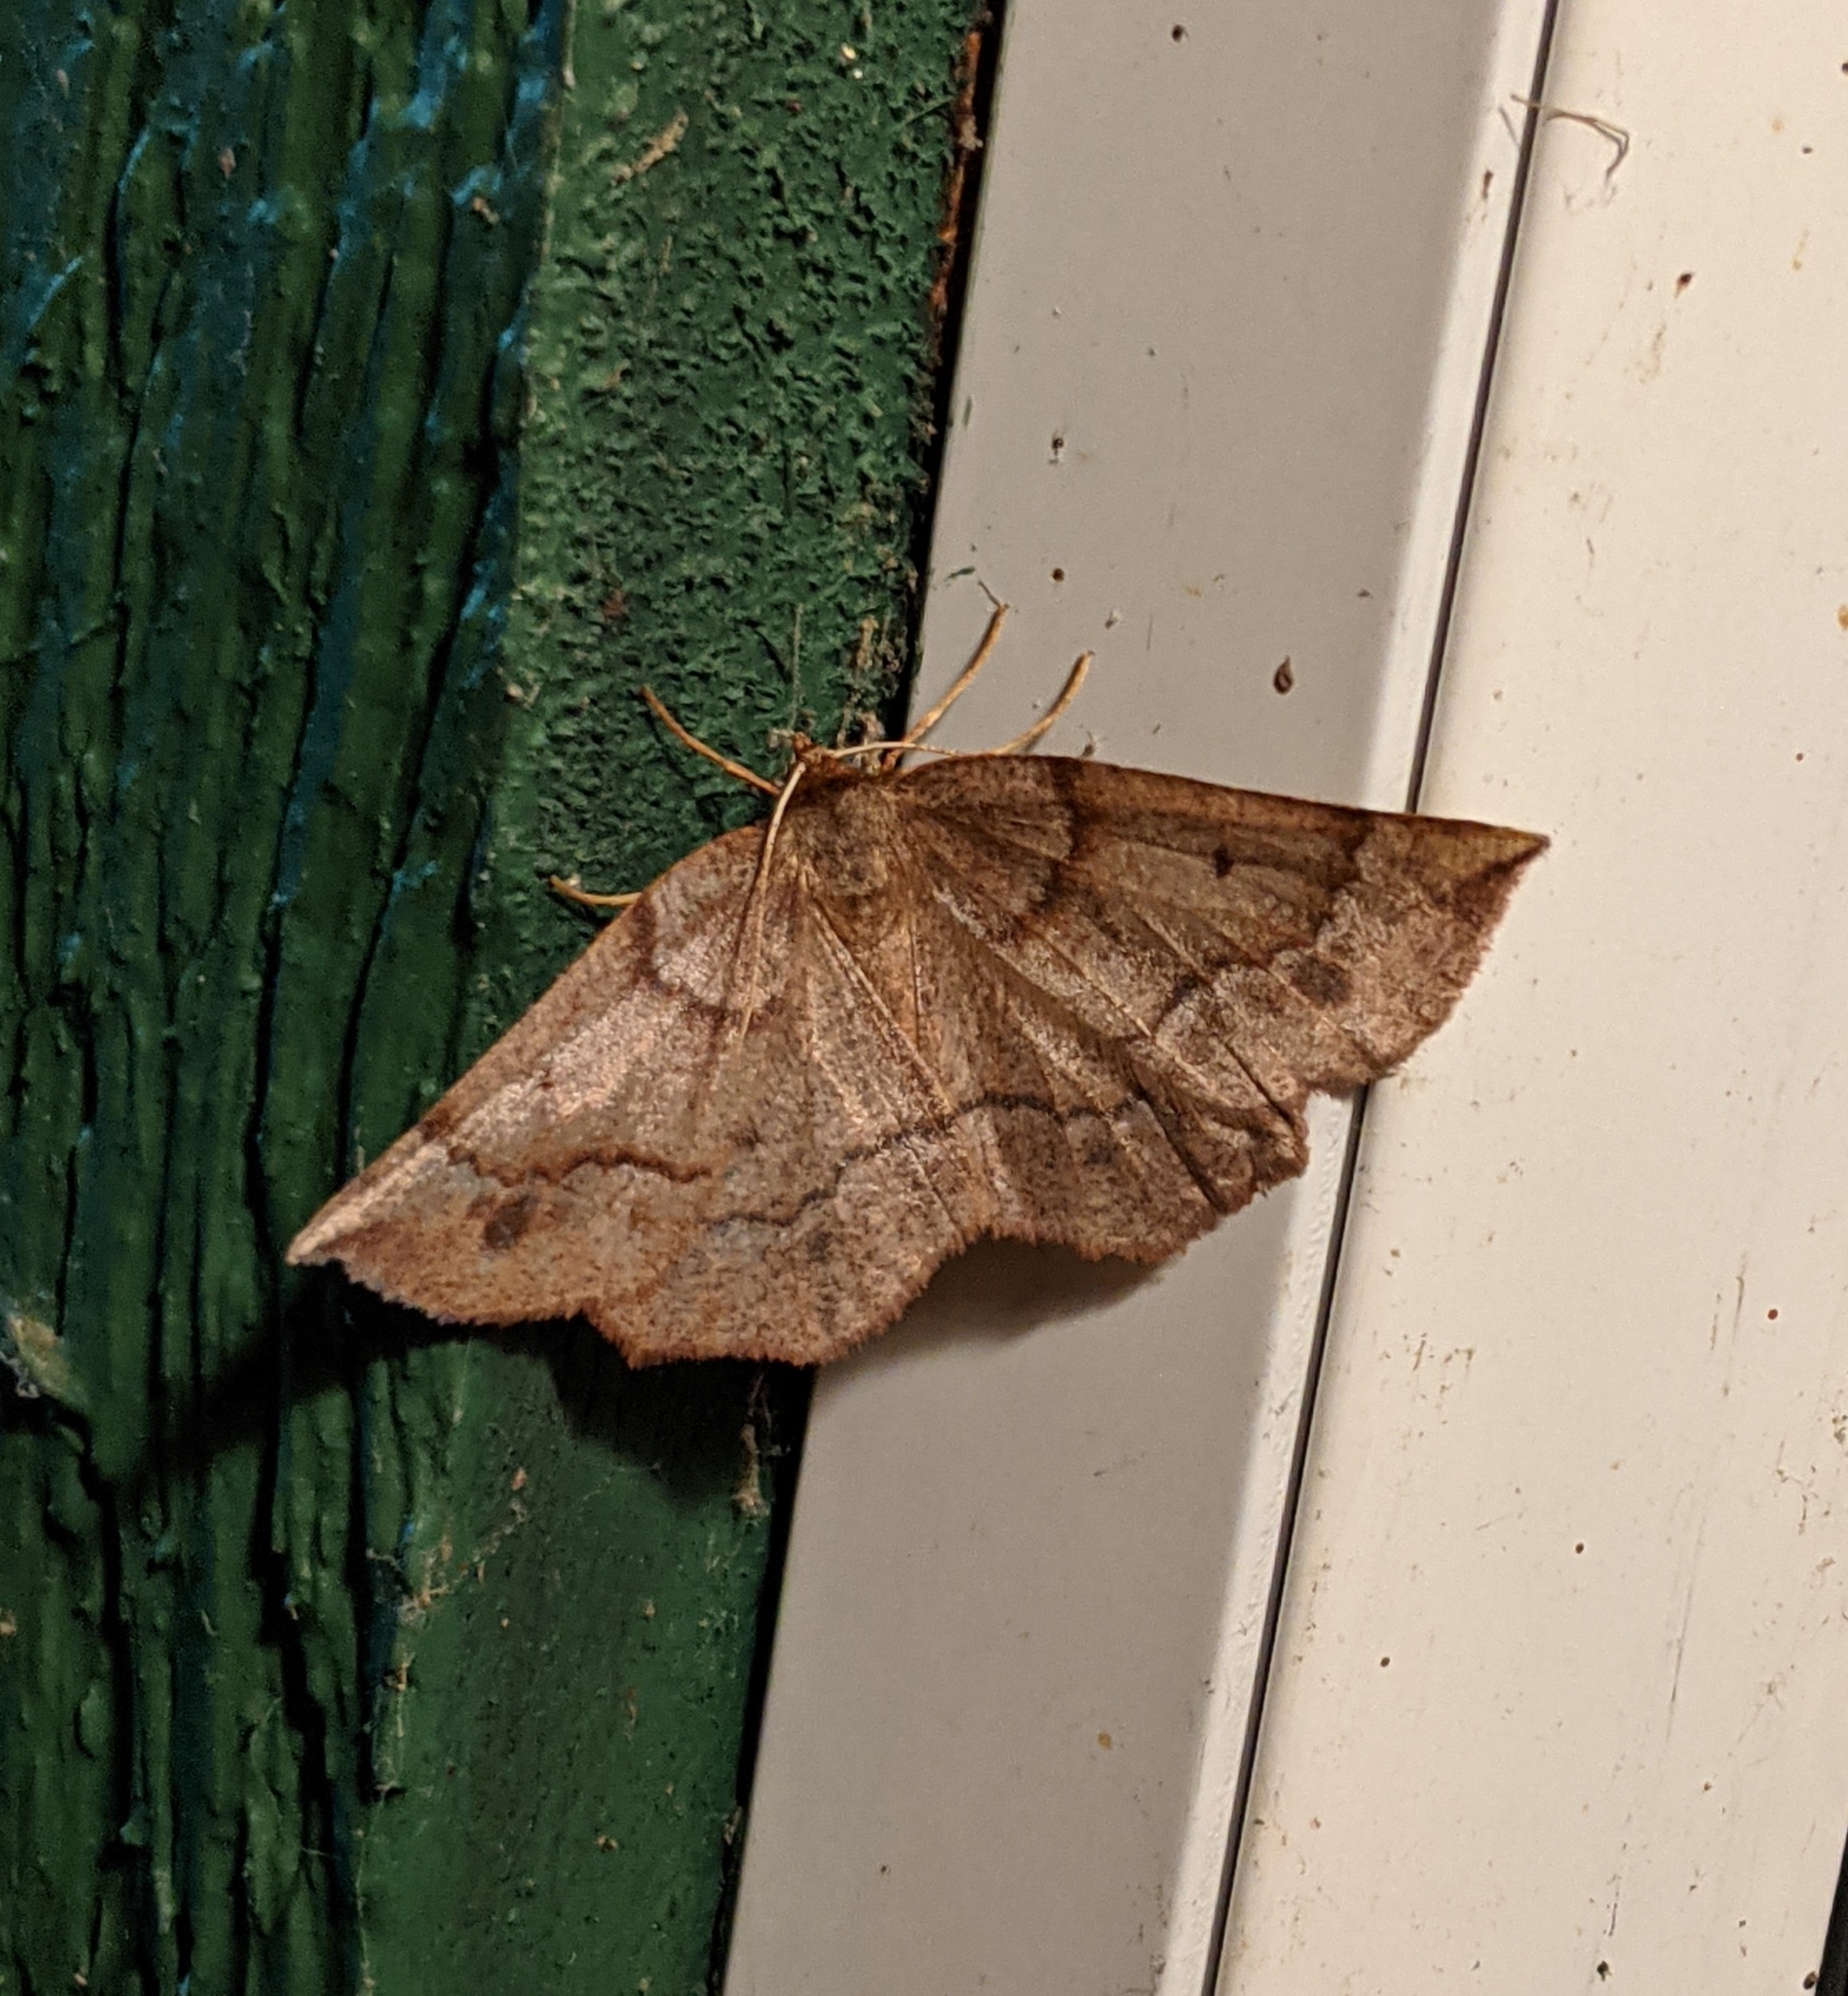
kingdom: Animalia
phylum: Arthropoda
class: Insecta
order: Lepidoptera
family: Geometridae
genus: Metarranthis
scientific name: Metarranthis duaria
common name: Ruddy metarranthis moth
